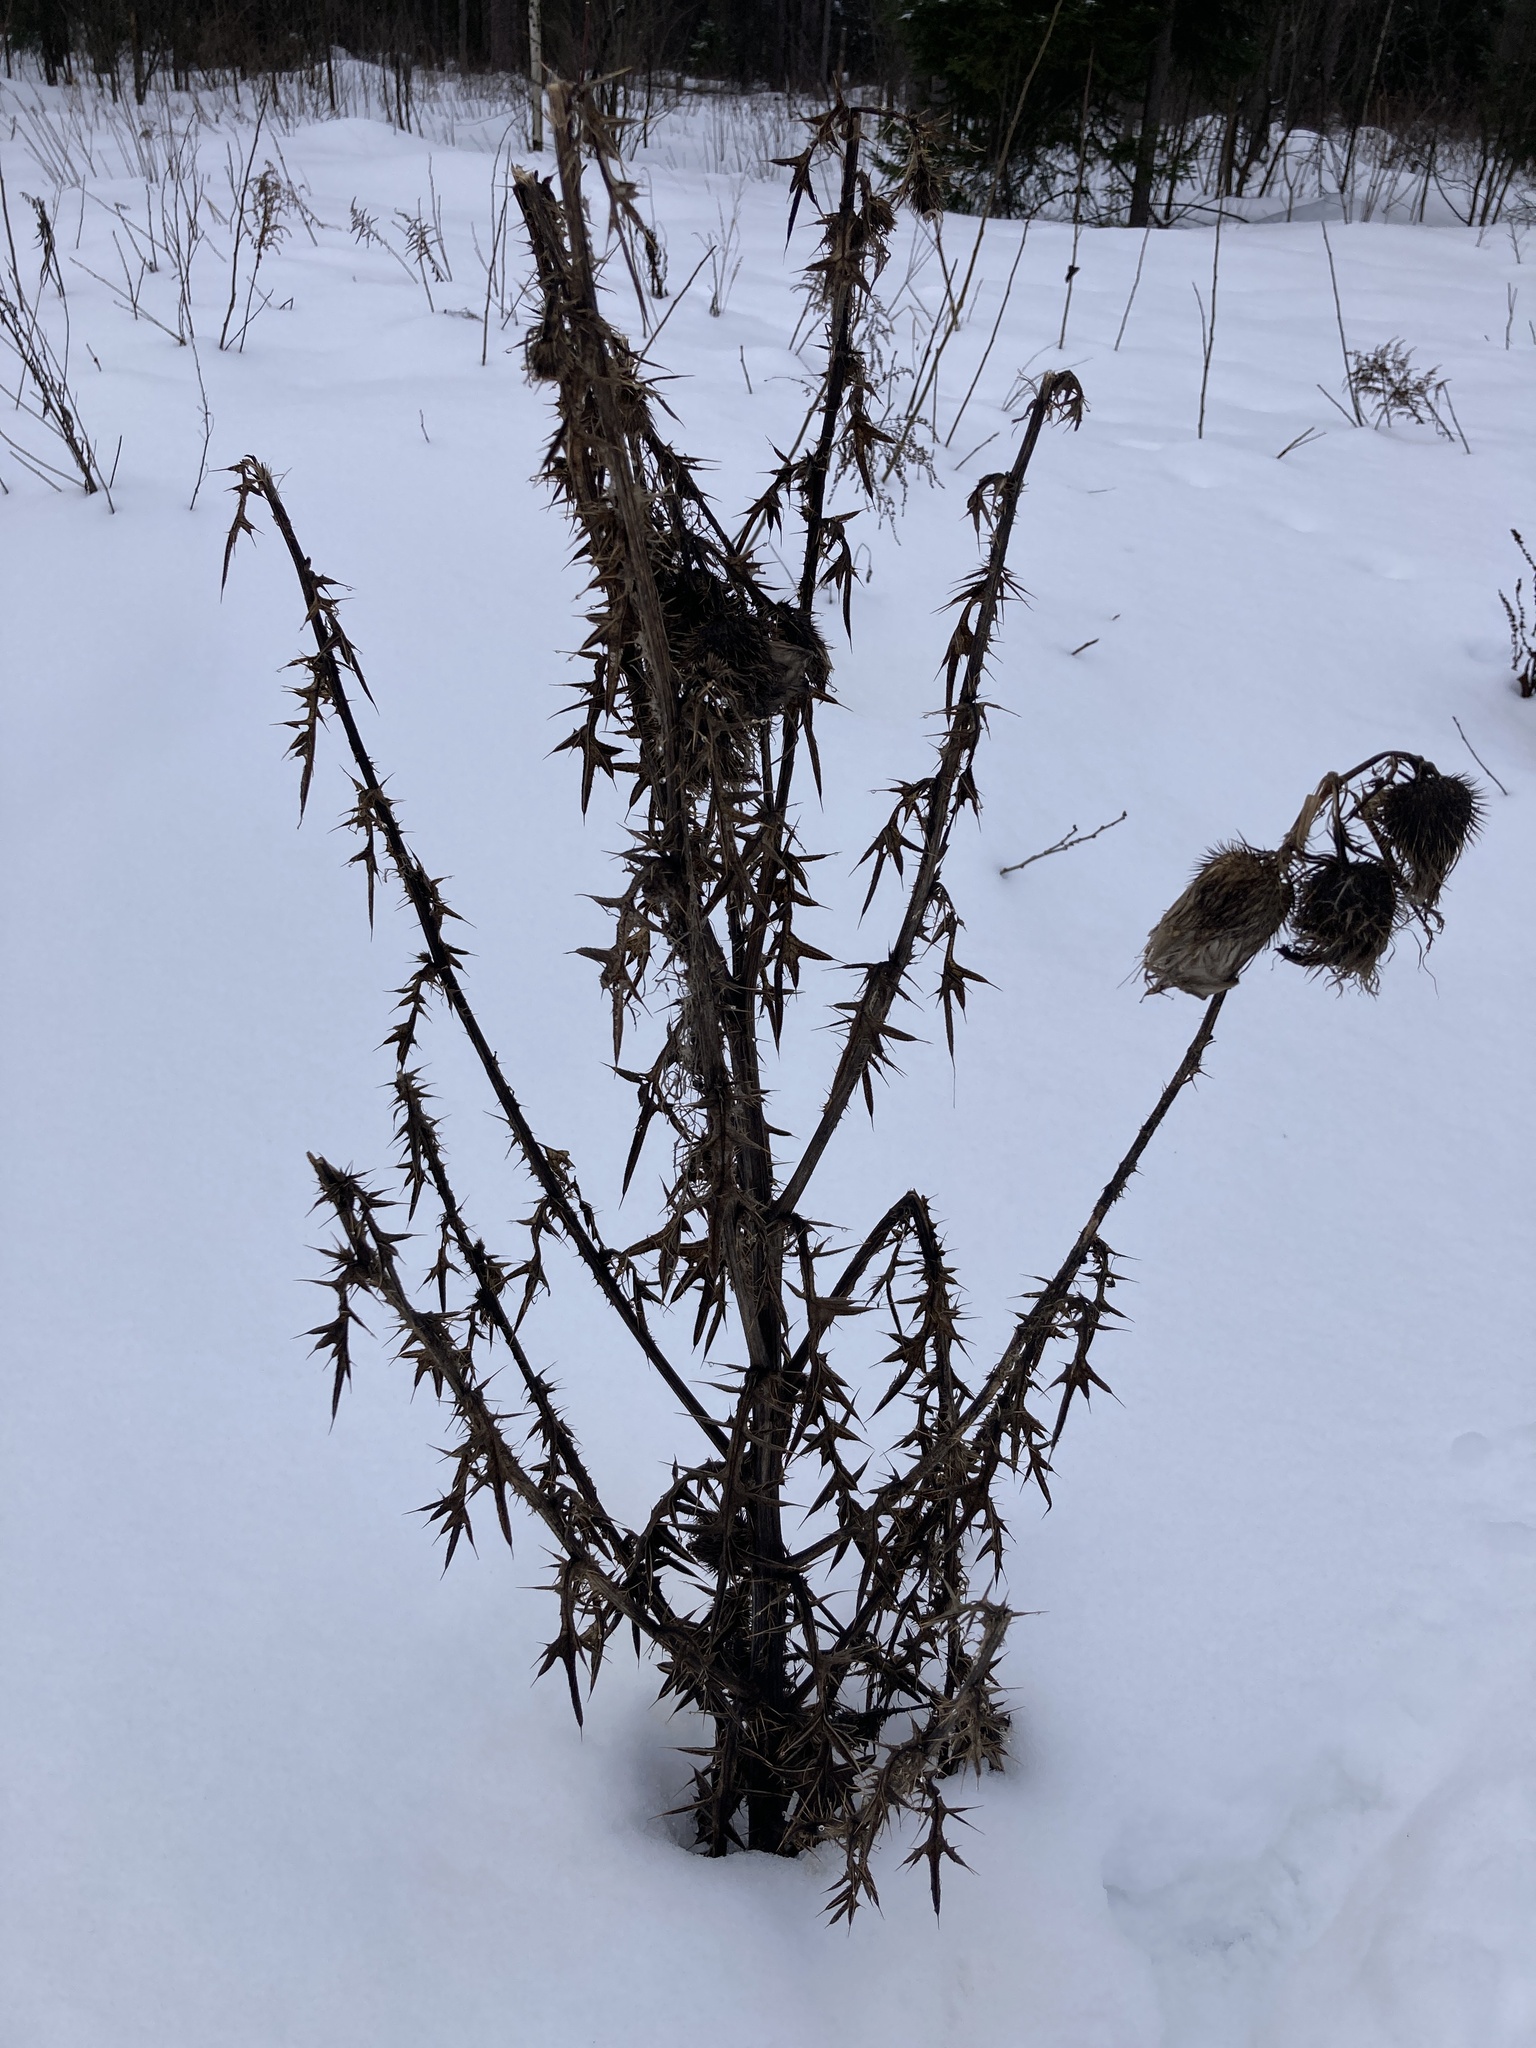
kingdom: Plantae
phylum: Tracheophyta
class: Magnoliopsida
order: Asterales
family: Asteraceae
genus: Cirsium
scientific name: Cirsium vulgare
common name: Bull thistle
